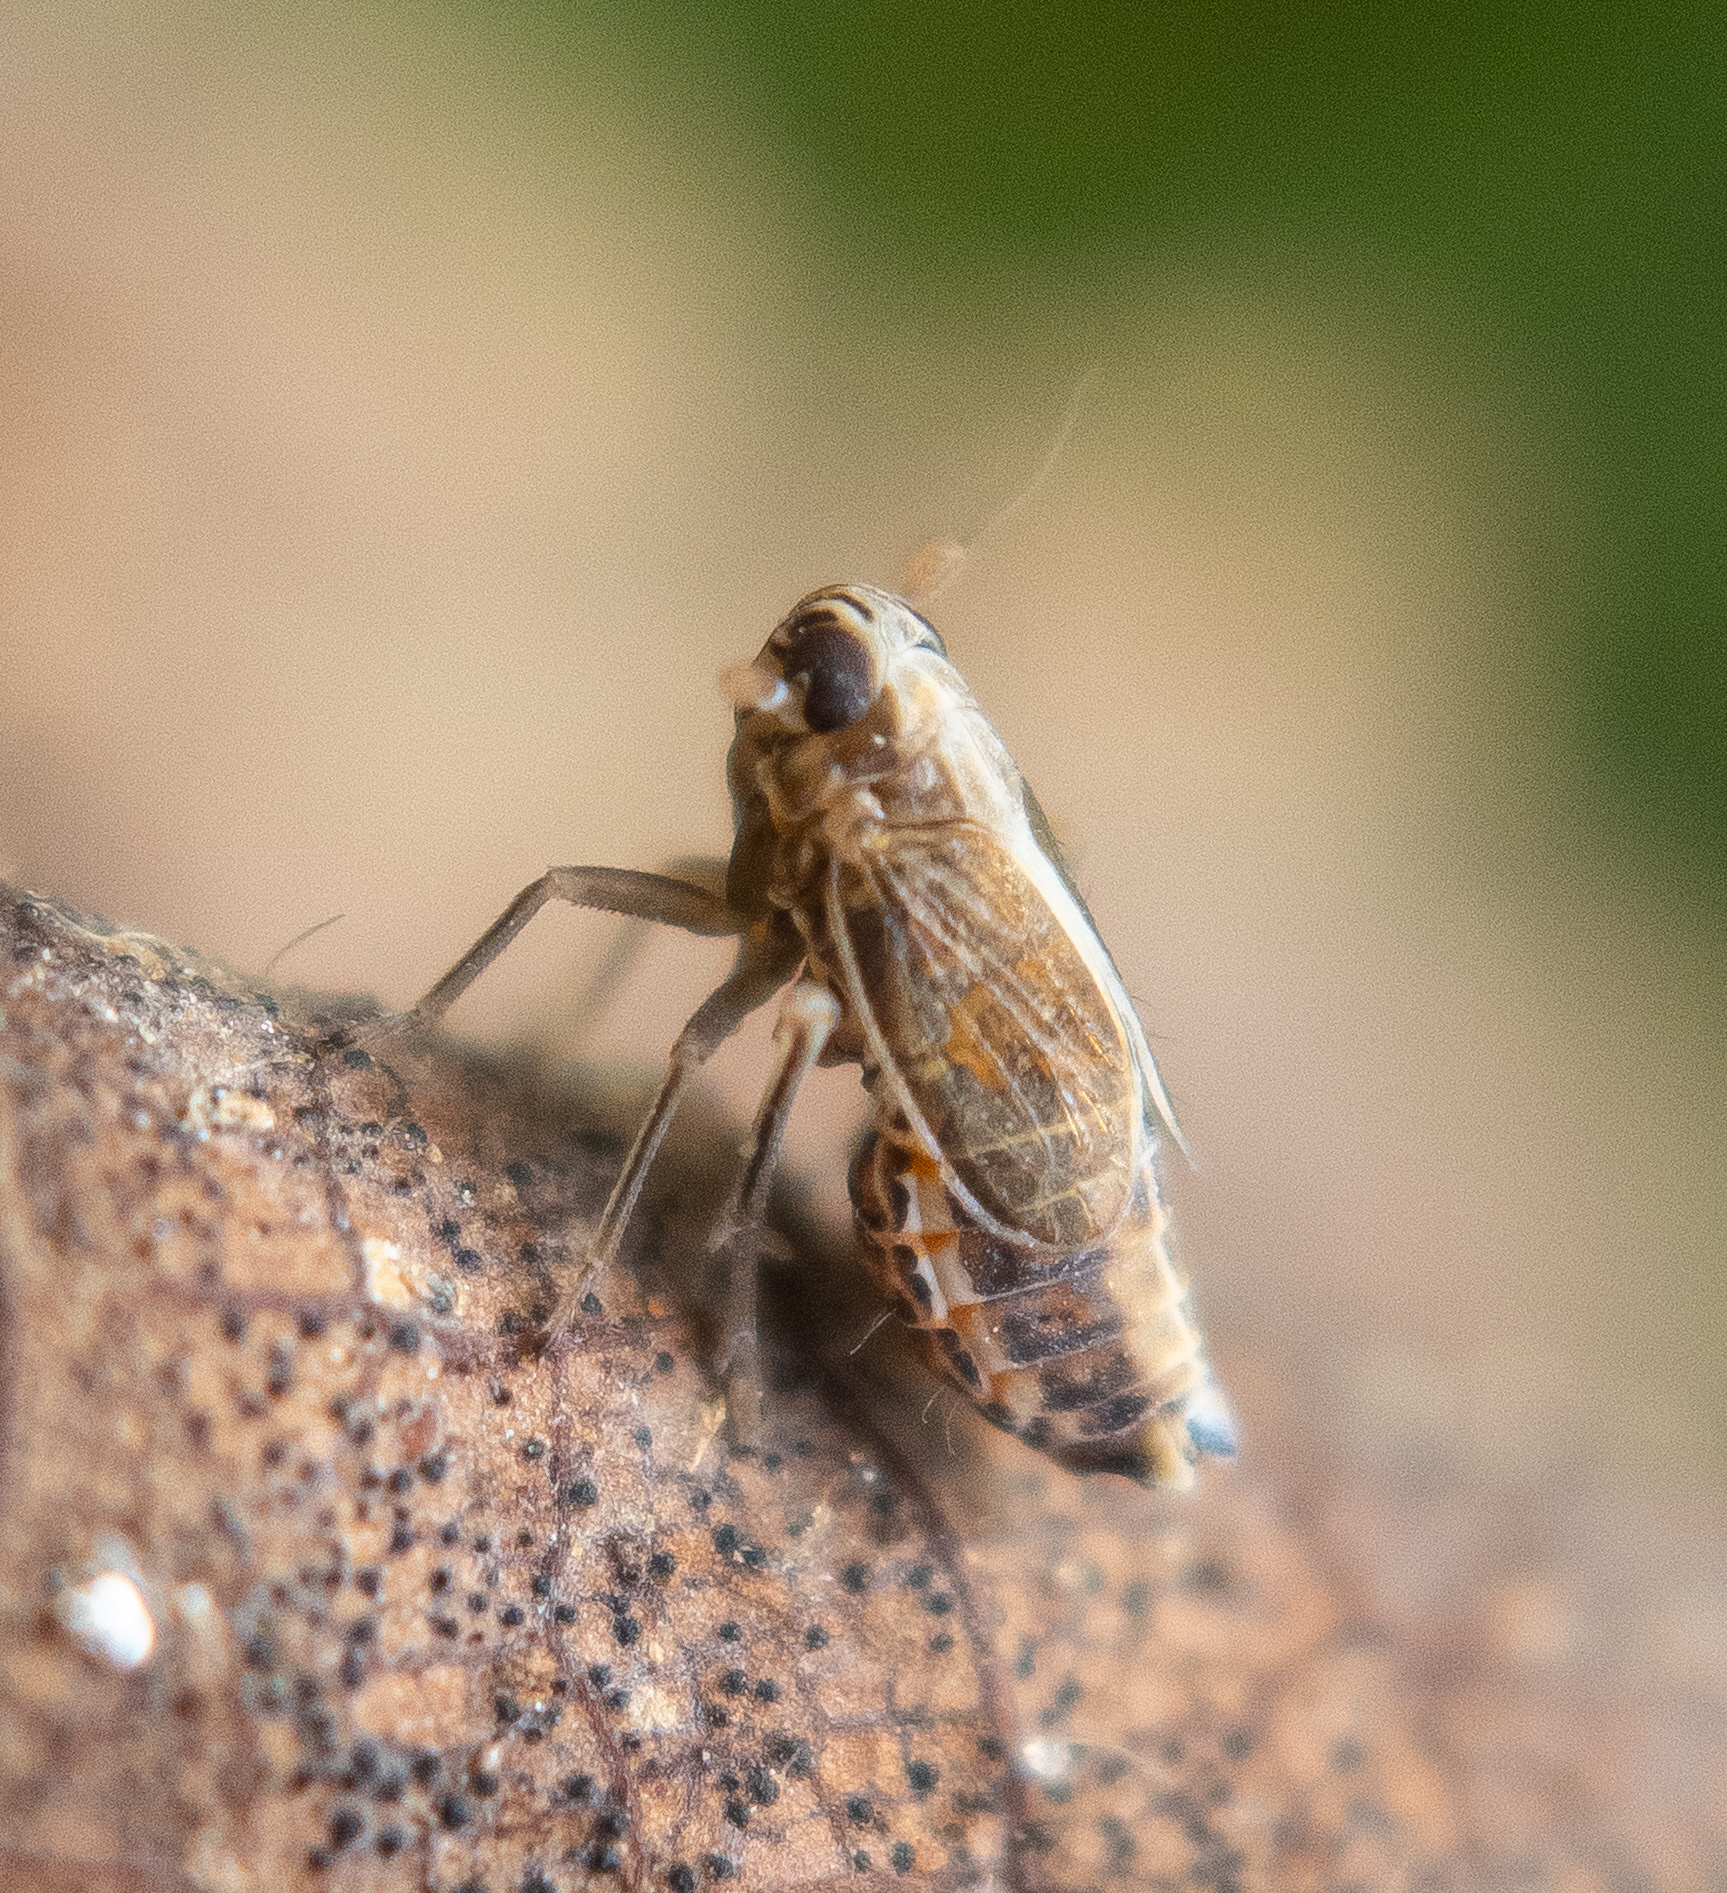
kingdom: Animalia
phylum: Arthropoda
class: Insecta
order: Hemiptera
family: Delphacidae
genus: Muellerianella
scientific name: Muellerianella laminalis
